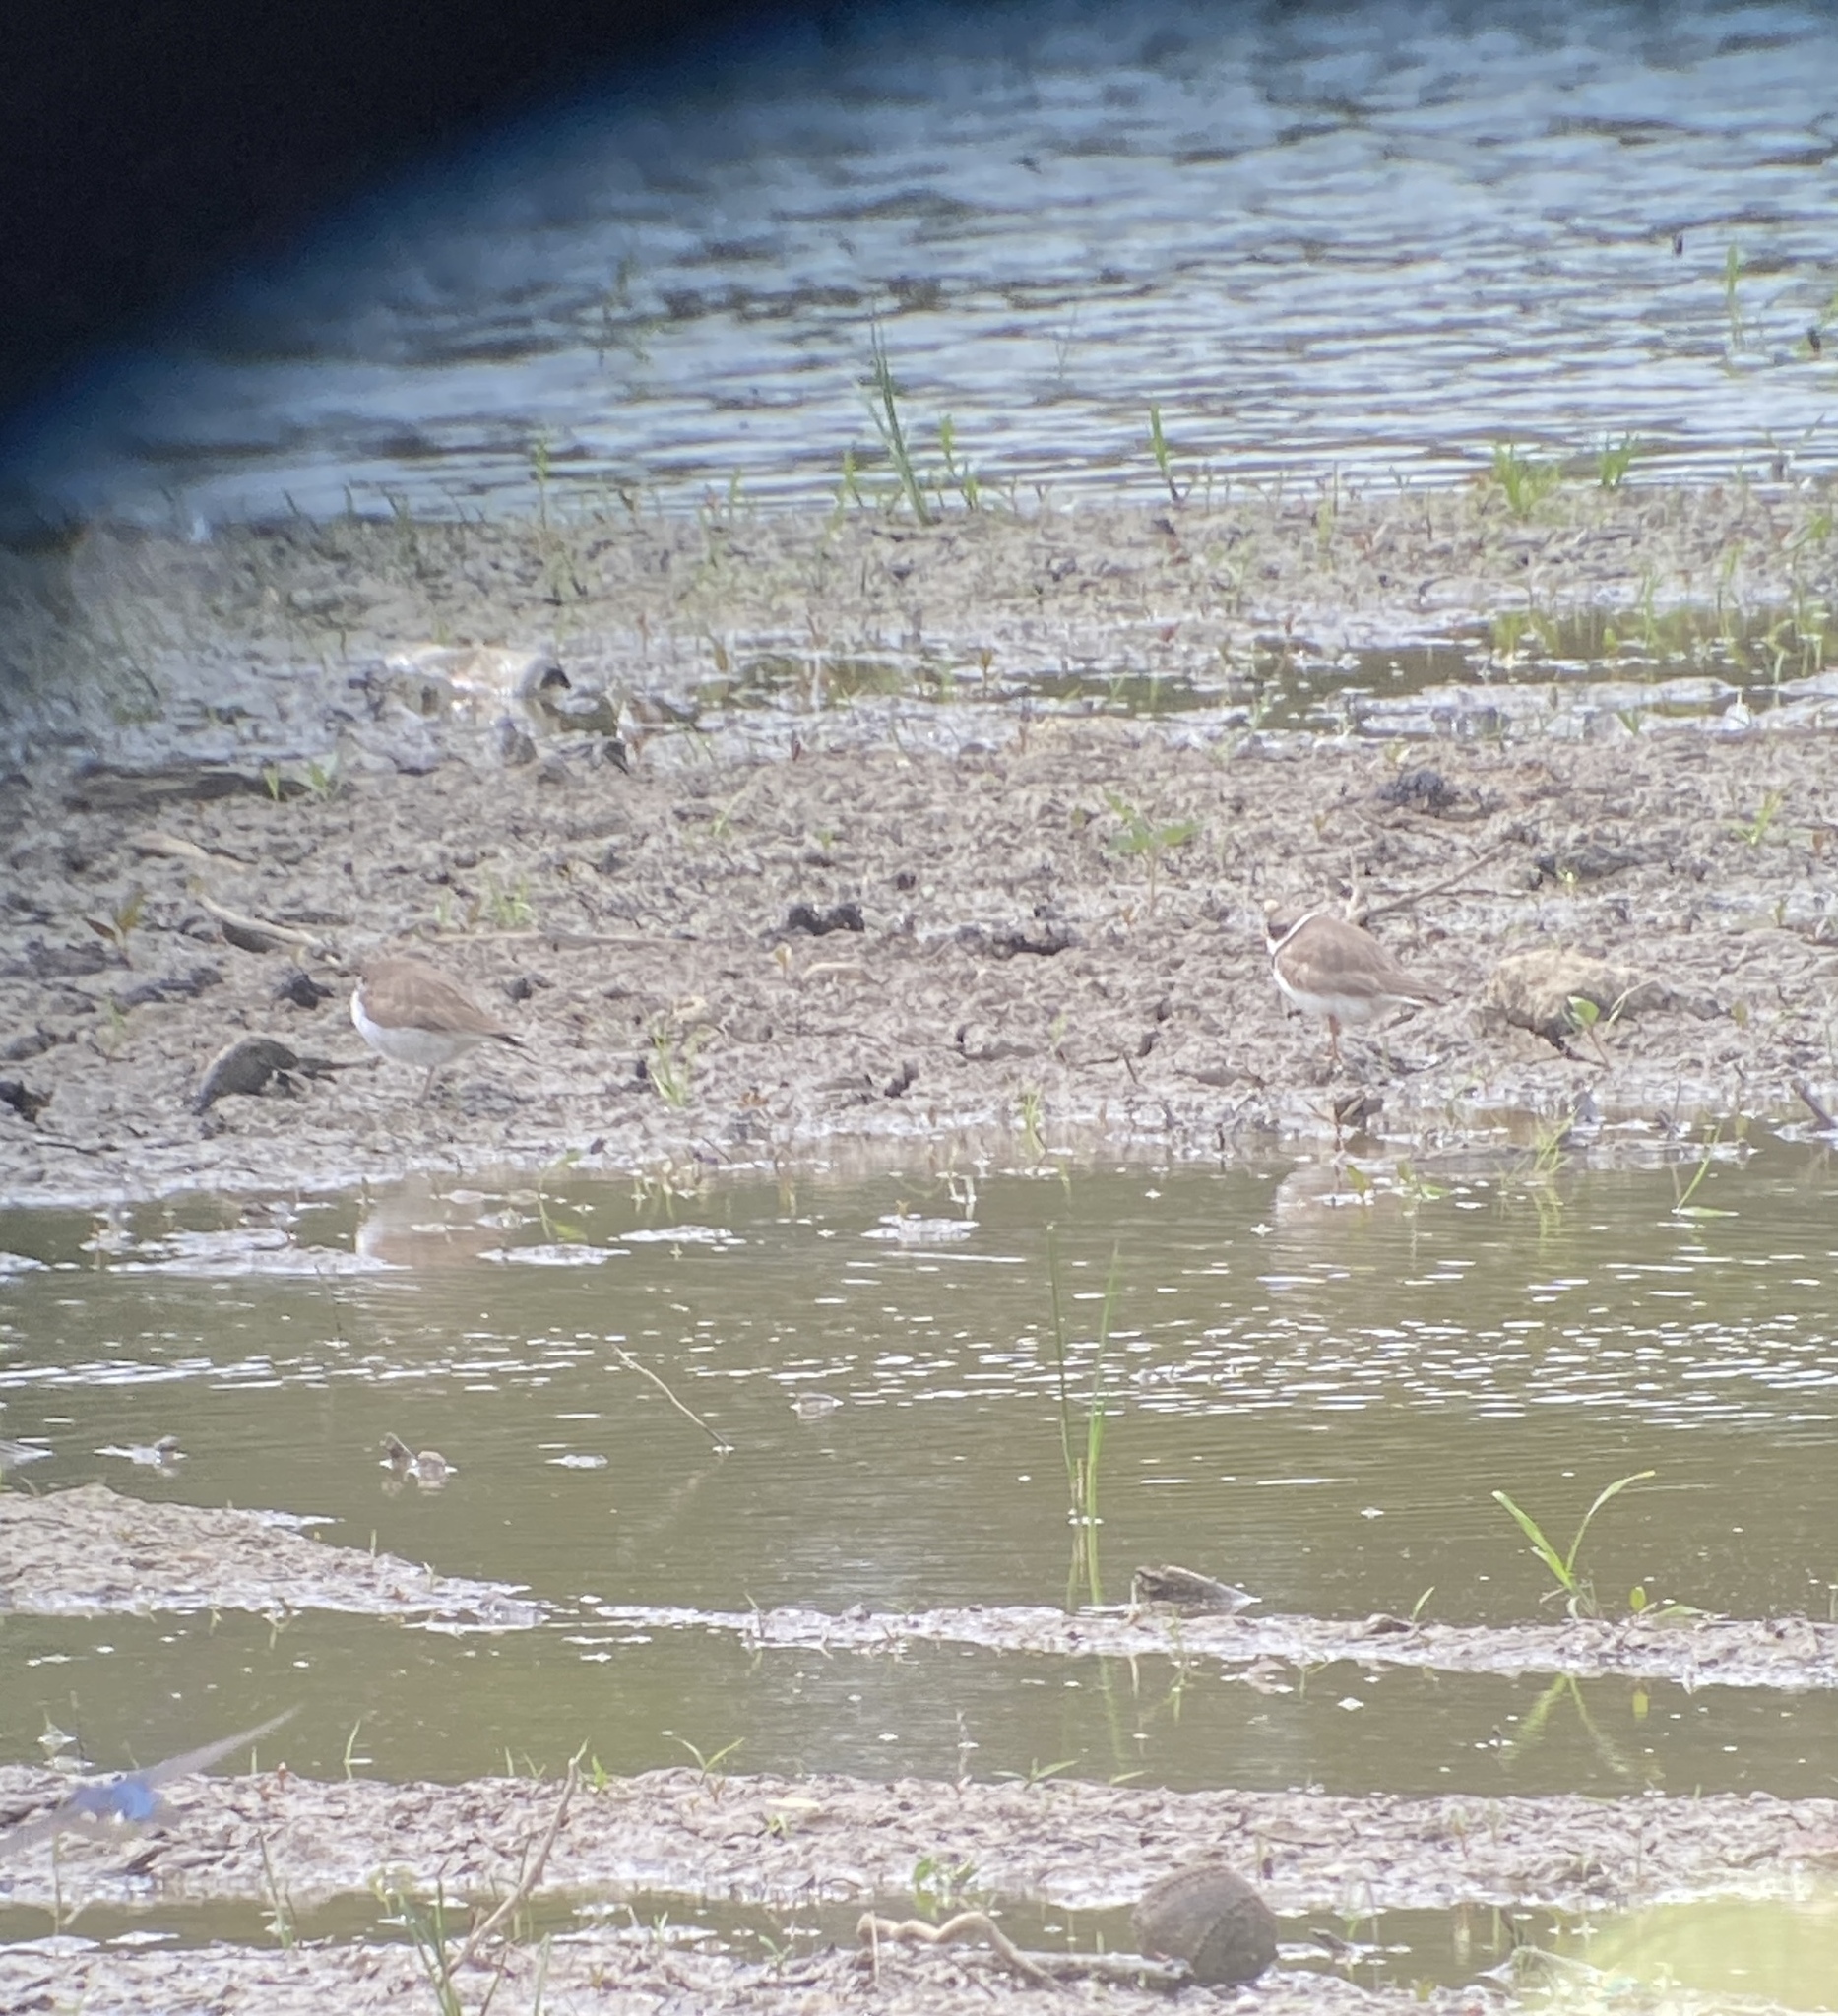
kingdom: Animalia
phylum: Chordata
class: Aves
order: Charadriiformes
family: Charadriidae
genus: Charadrius
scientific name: Charadrius semipalmatus
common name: Semipalmated plover
